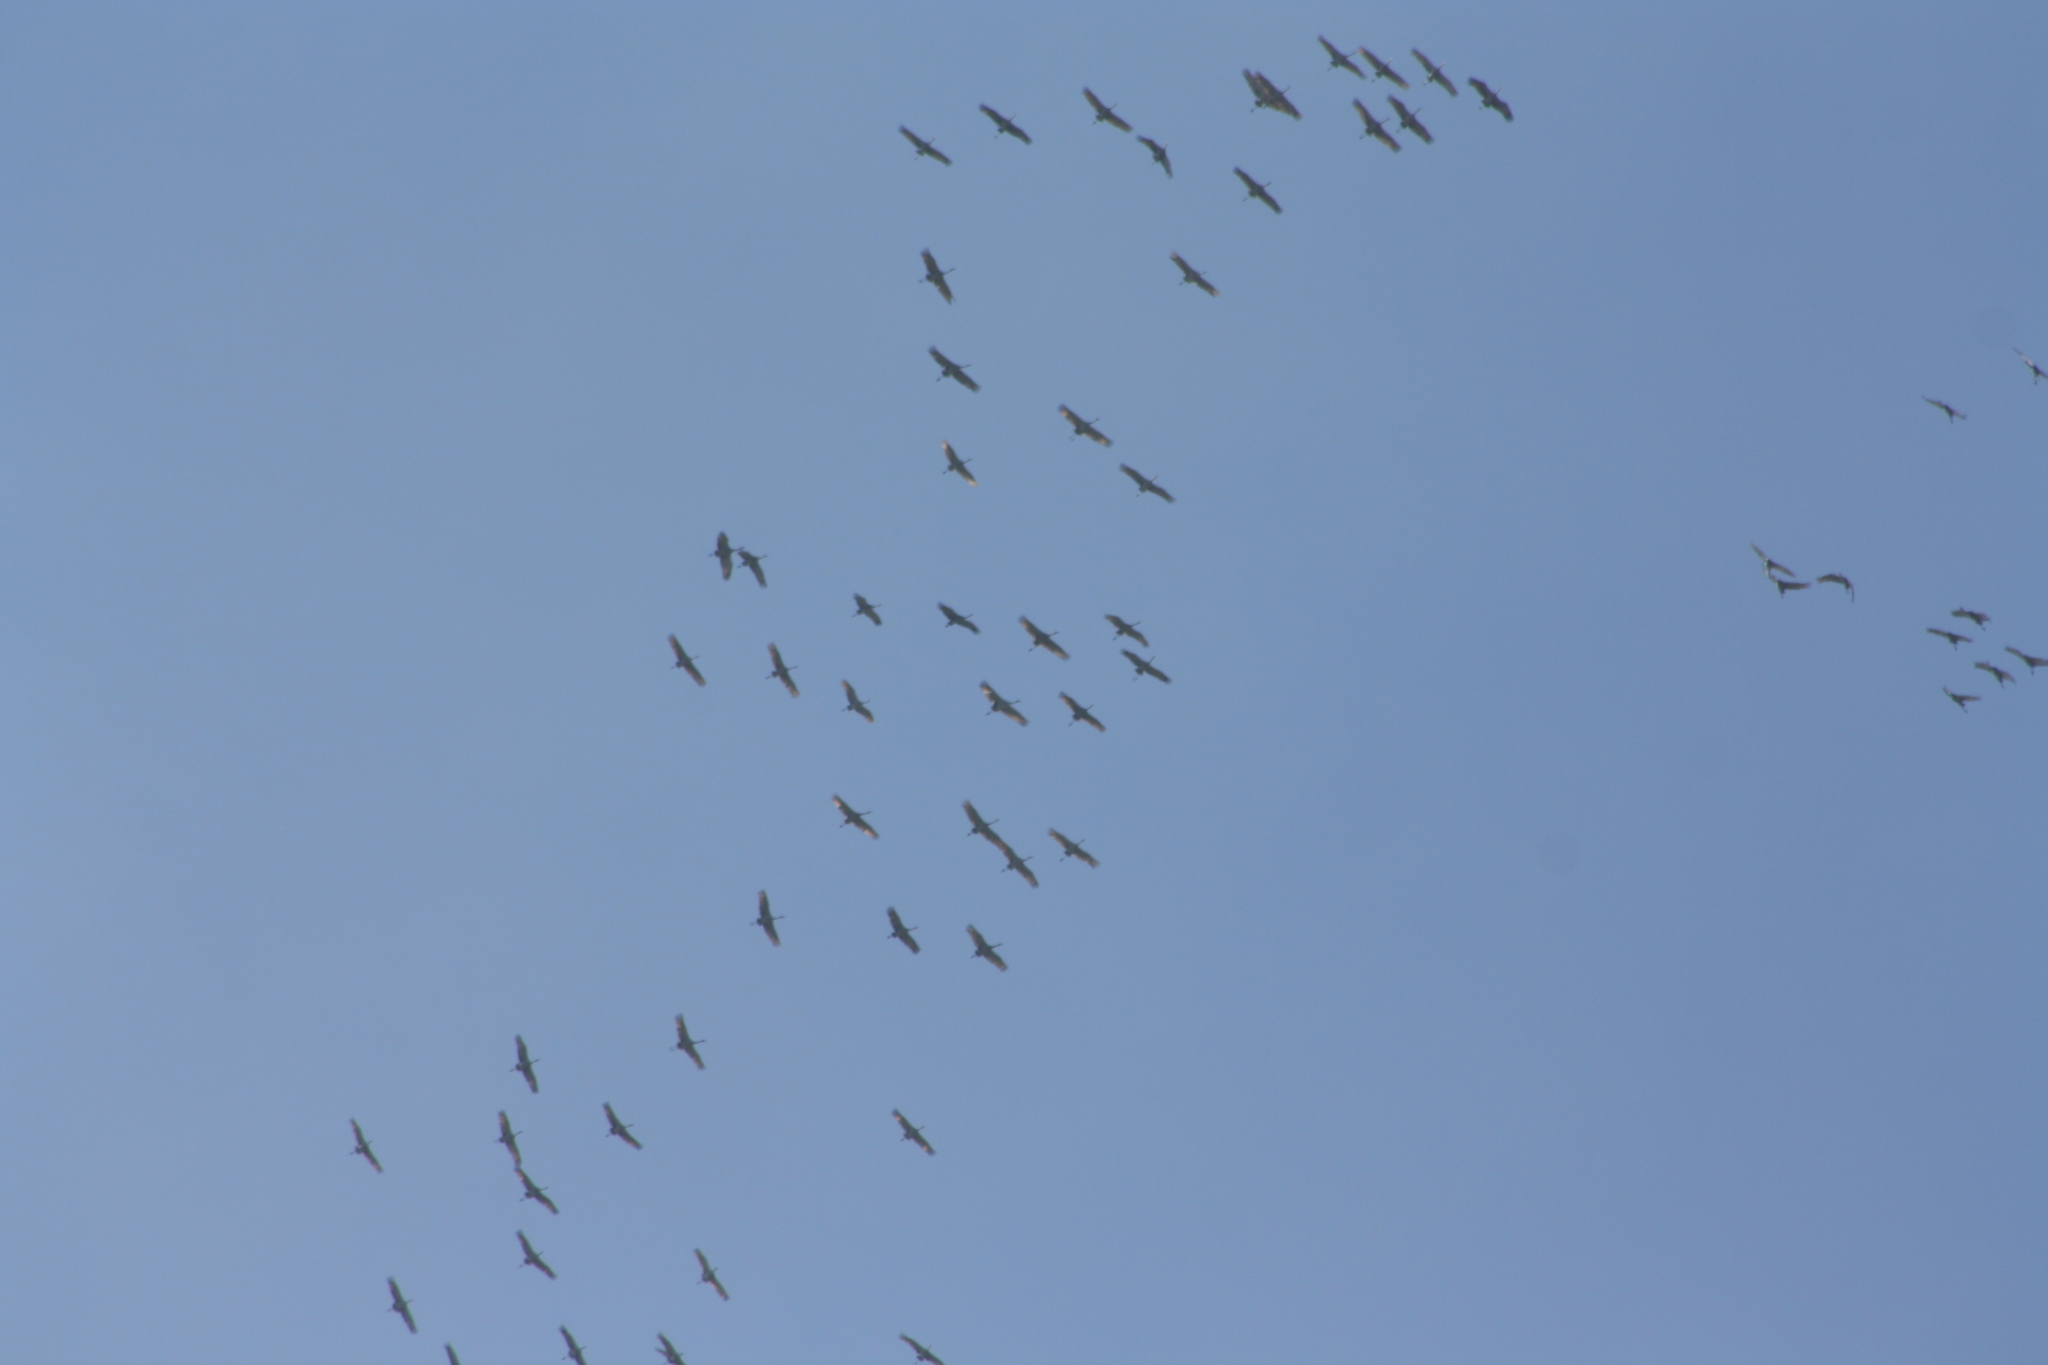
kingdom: Animalia
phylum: Chordata
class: Aves
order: Gruiformes
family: Gruidae
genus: Grus
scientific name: Grus canadensis
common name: Sandhill crane
